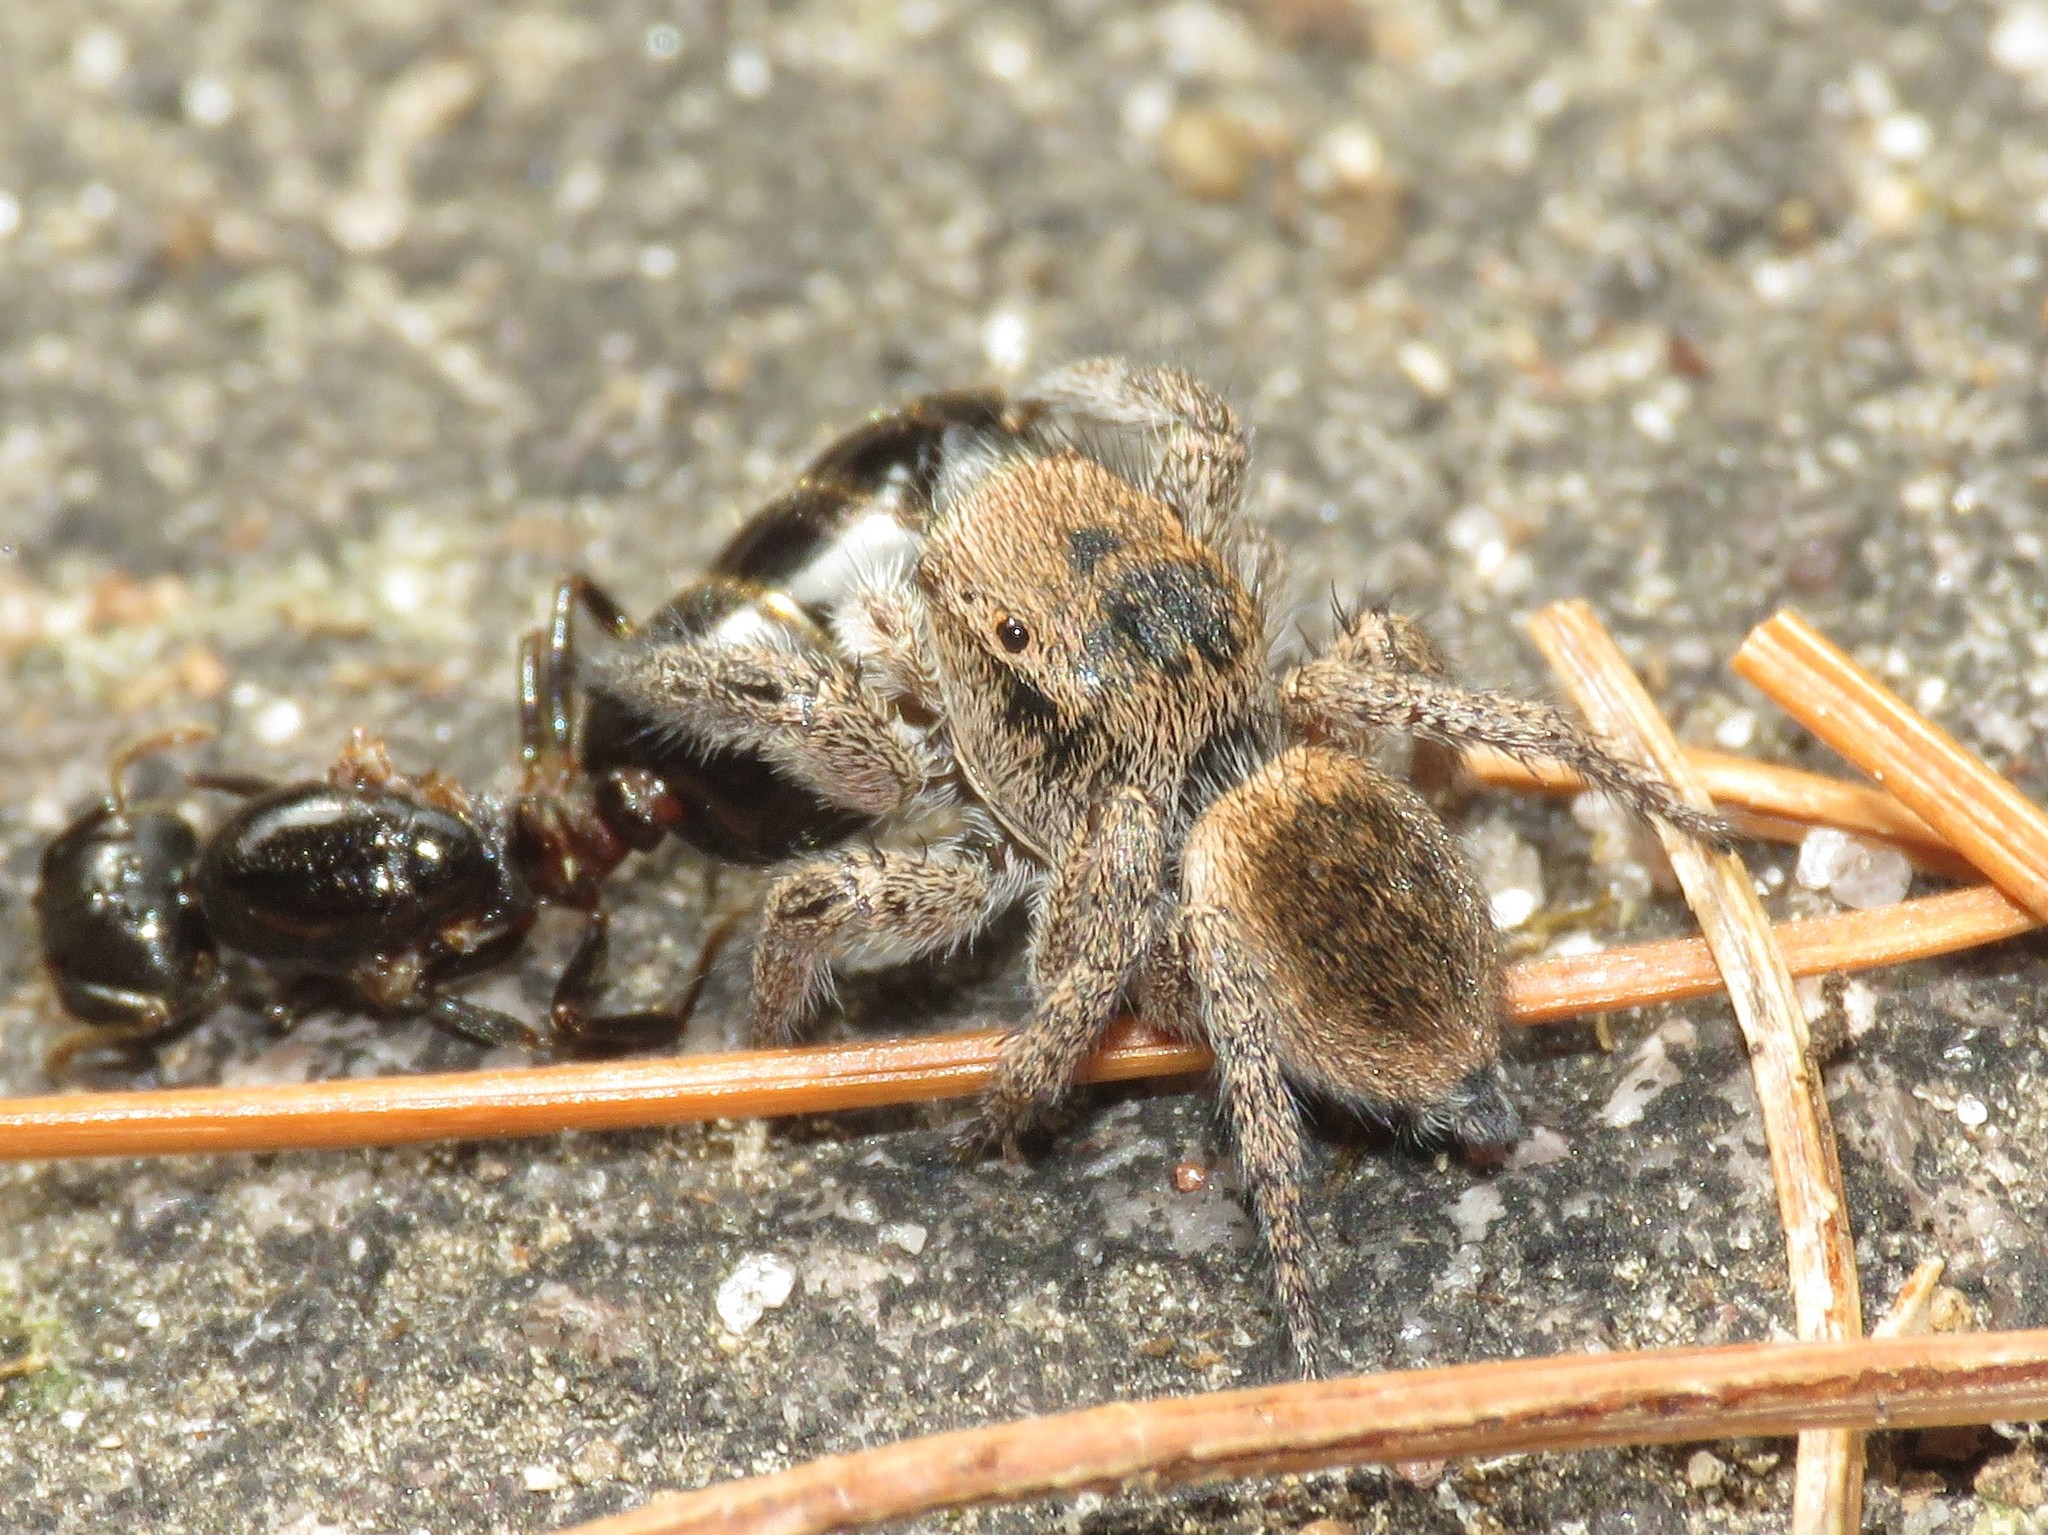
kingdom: Animalia
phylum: Arthropoda
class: Arachnida
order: Araneae
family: Salticidae
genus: Habronattus
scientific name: Habronattus viridipes
